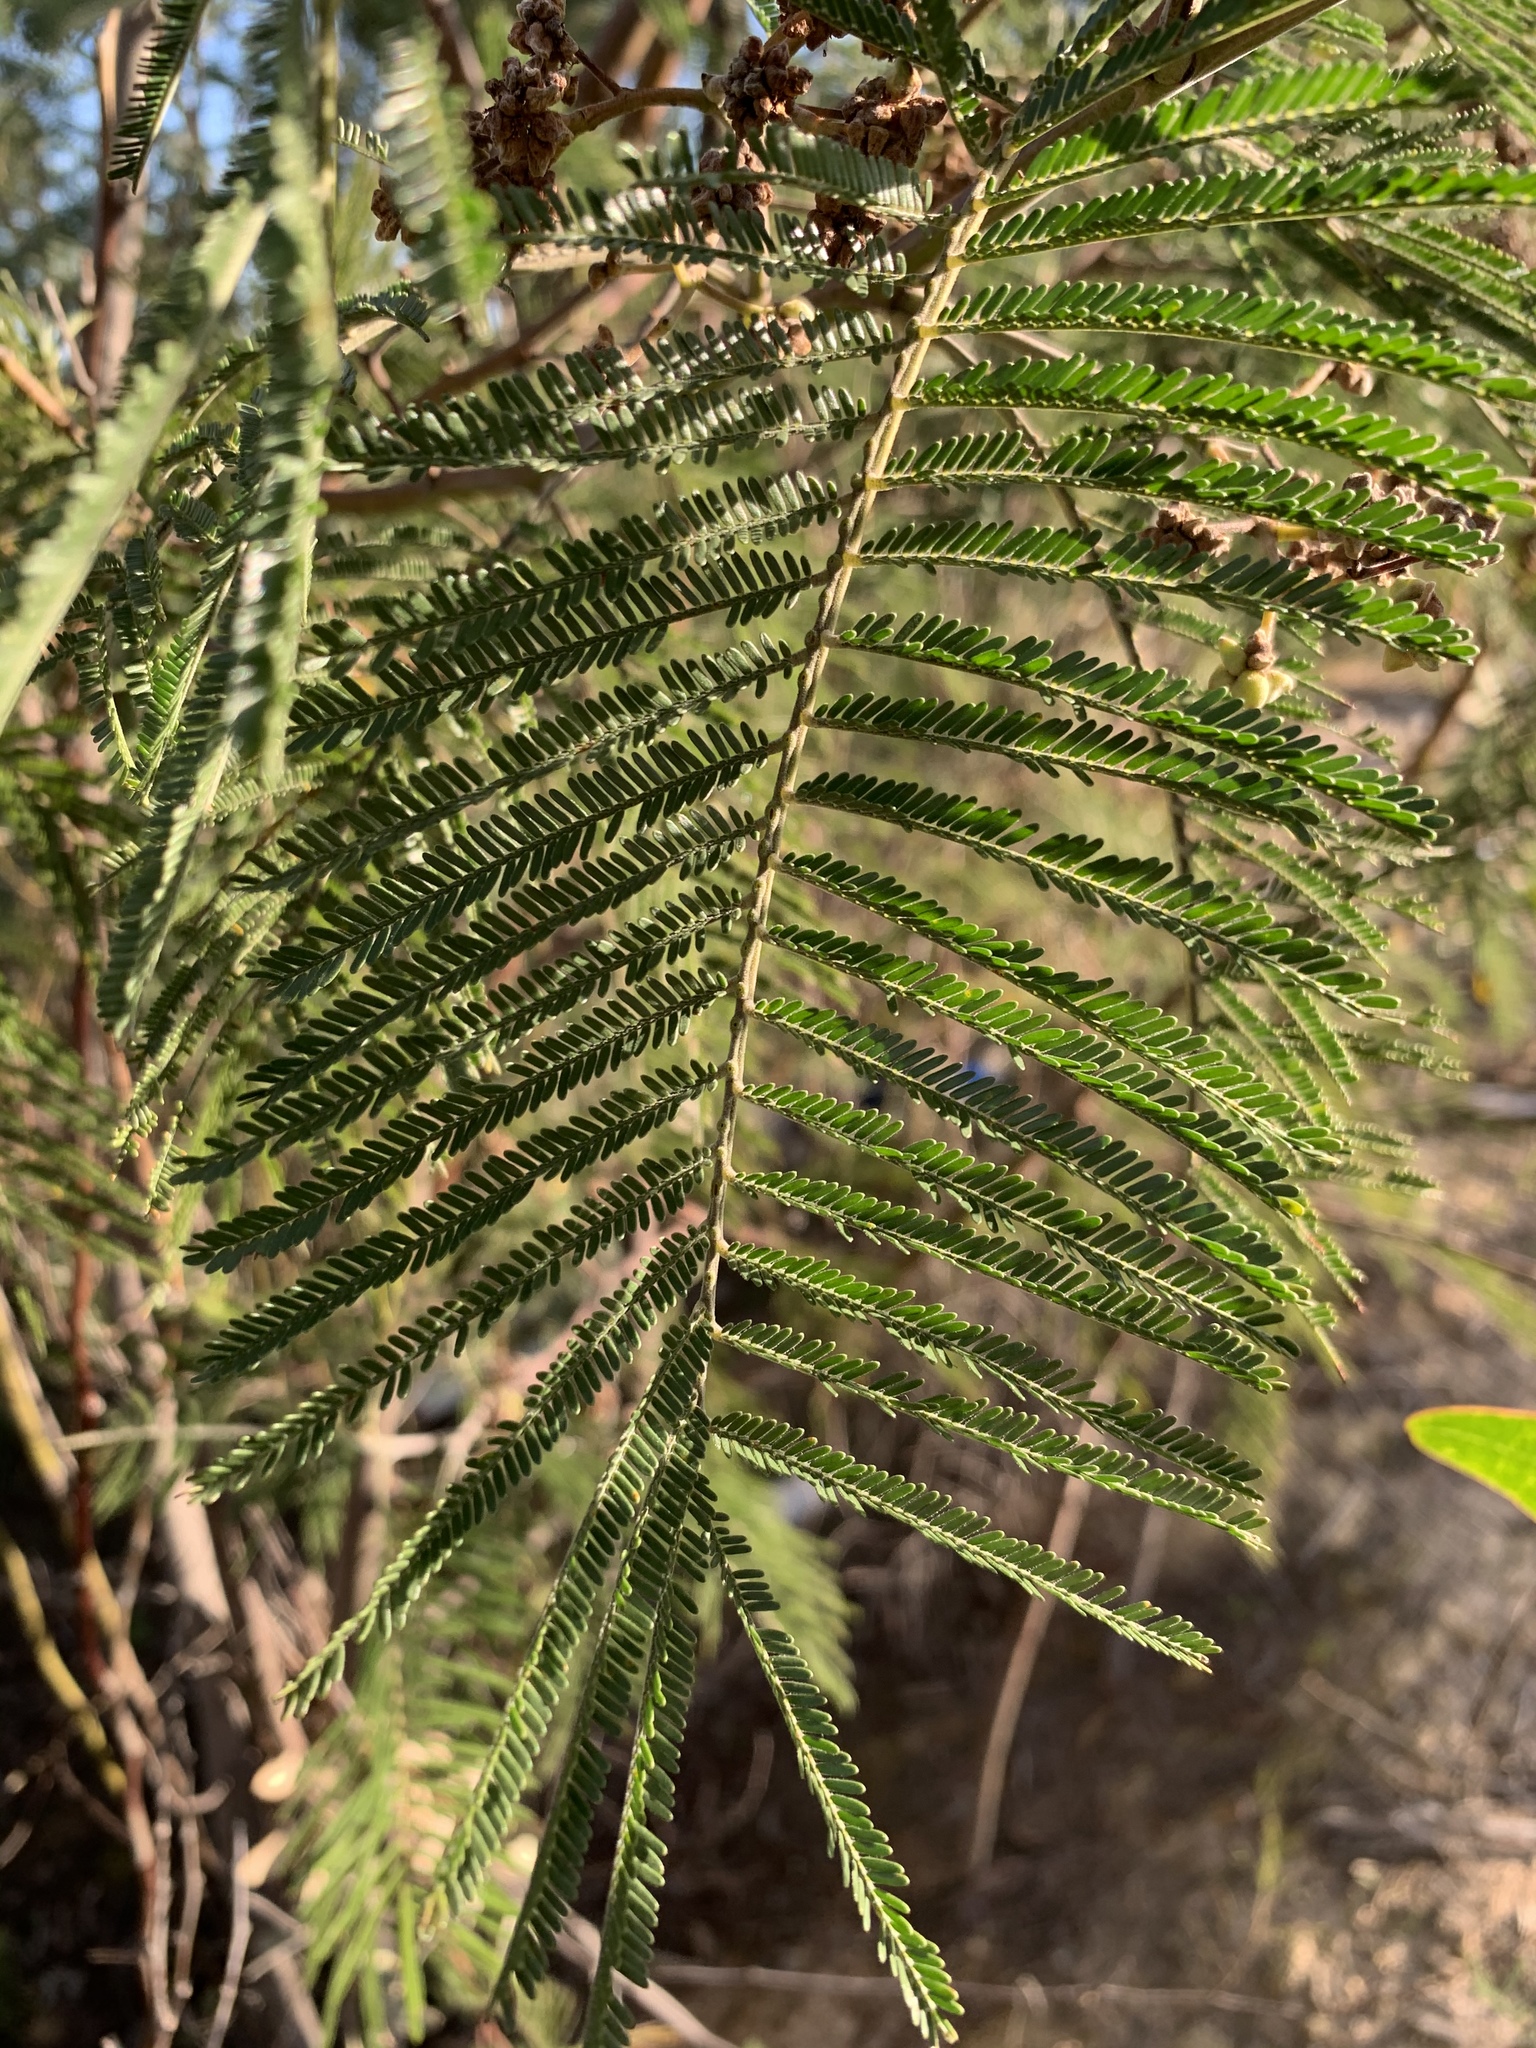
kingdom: Plantae
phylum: Tracheophyta
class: Magnoliopsida
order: Fabales
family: Fabaceae
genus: Acacia
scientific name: Acacia decurrens
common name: Green wattle
